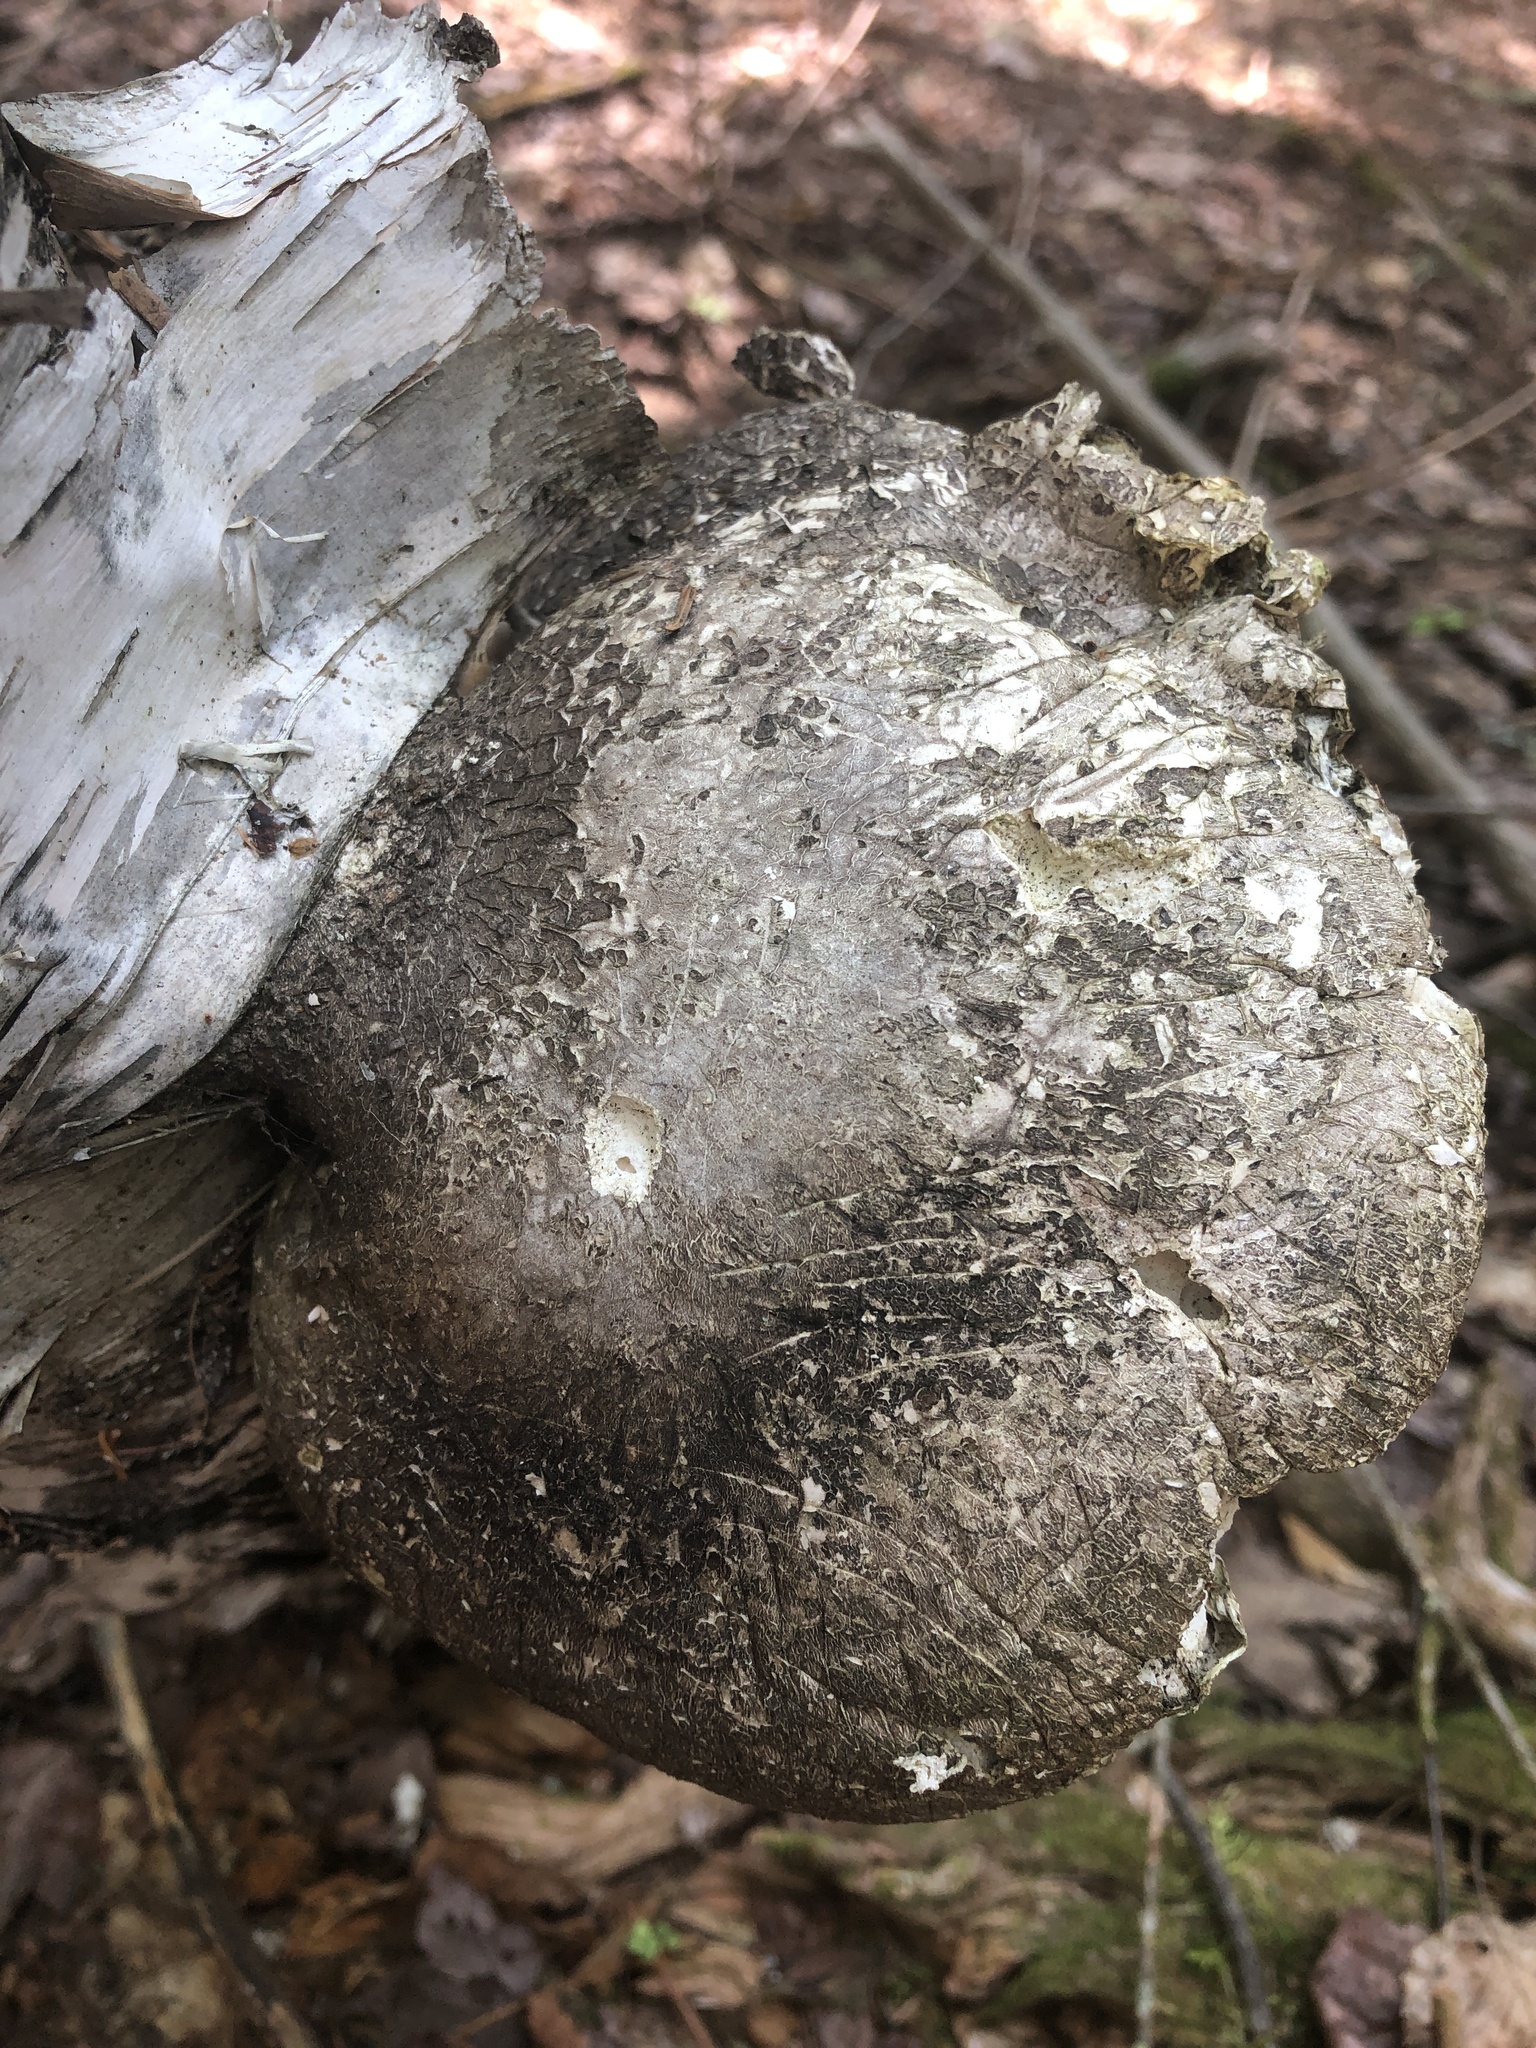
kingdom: Fungi
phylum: Basidiomycota
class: Agaricomycetes
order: Polyporales
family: Fomitopsidaceae
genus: Fomitopsis
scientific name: Fomitopsis betulina
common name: Birch polypore
